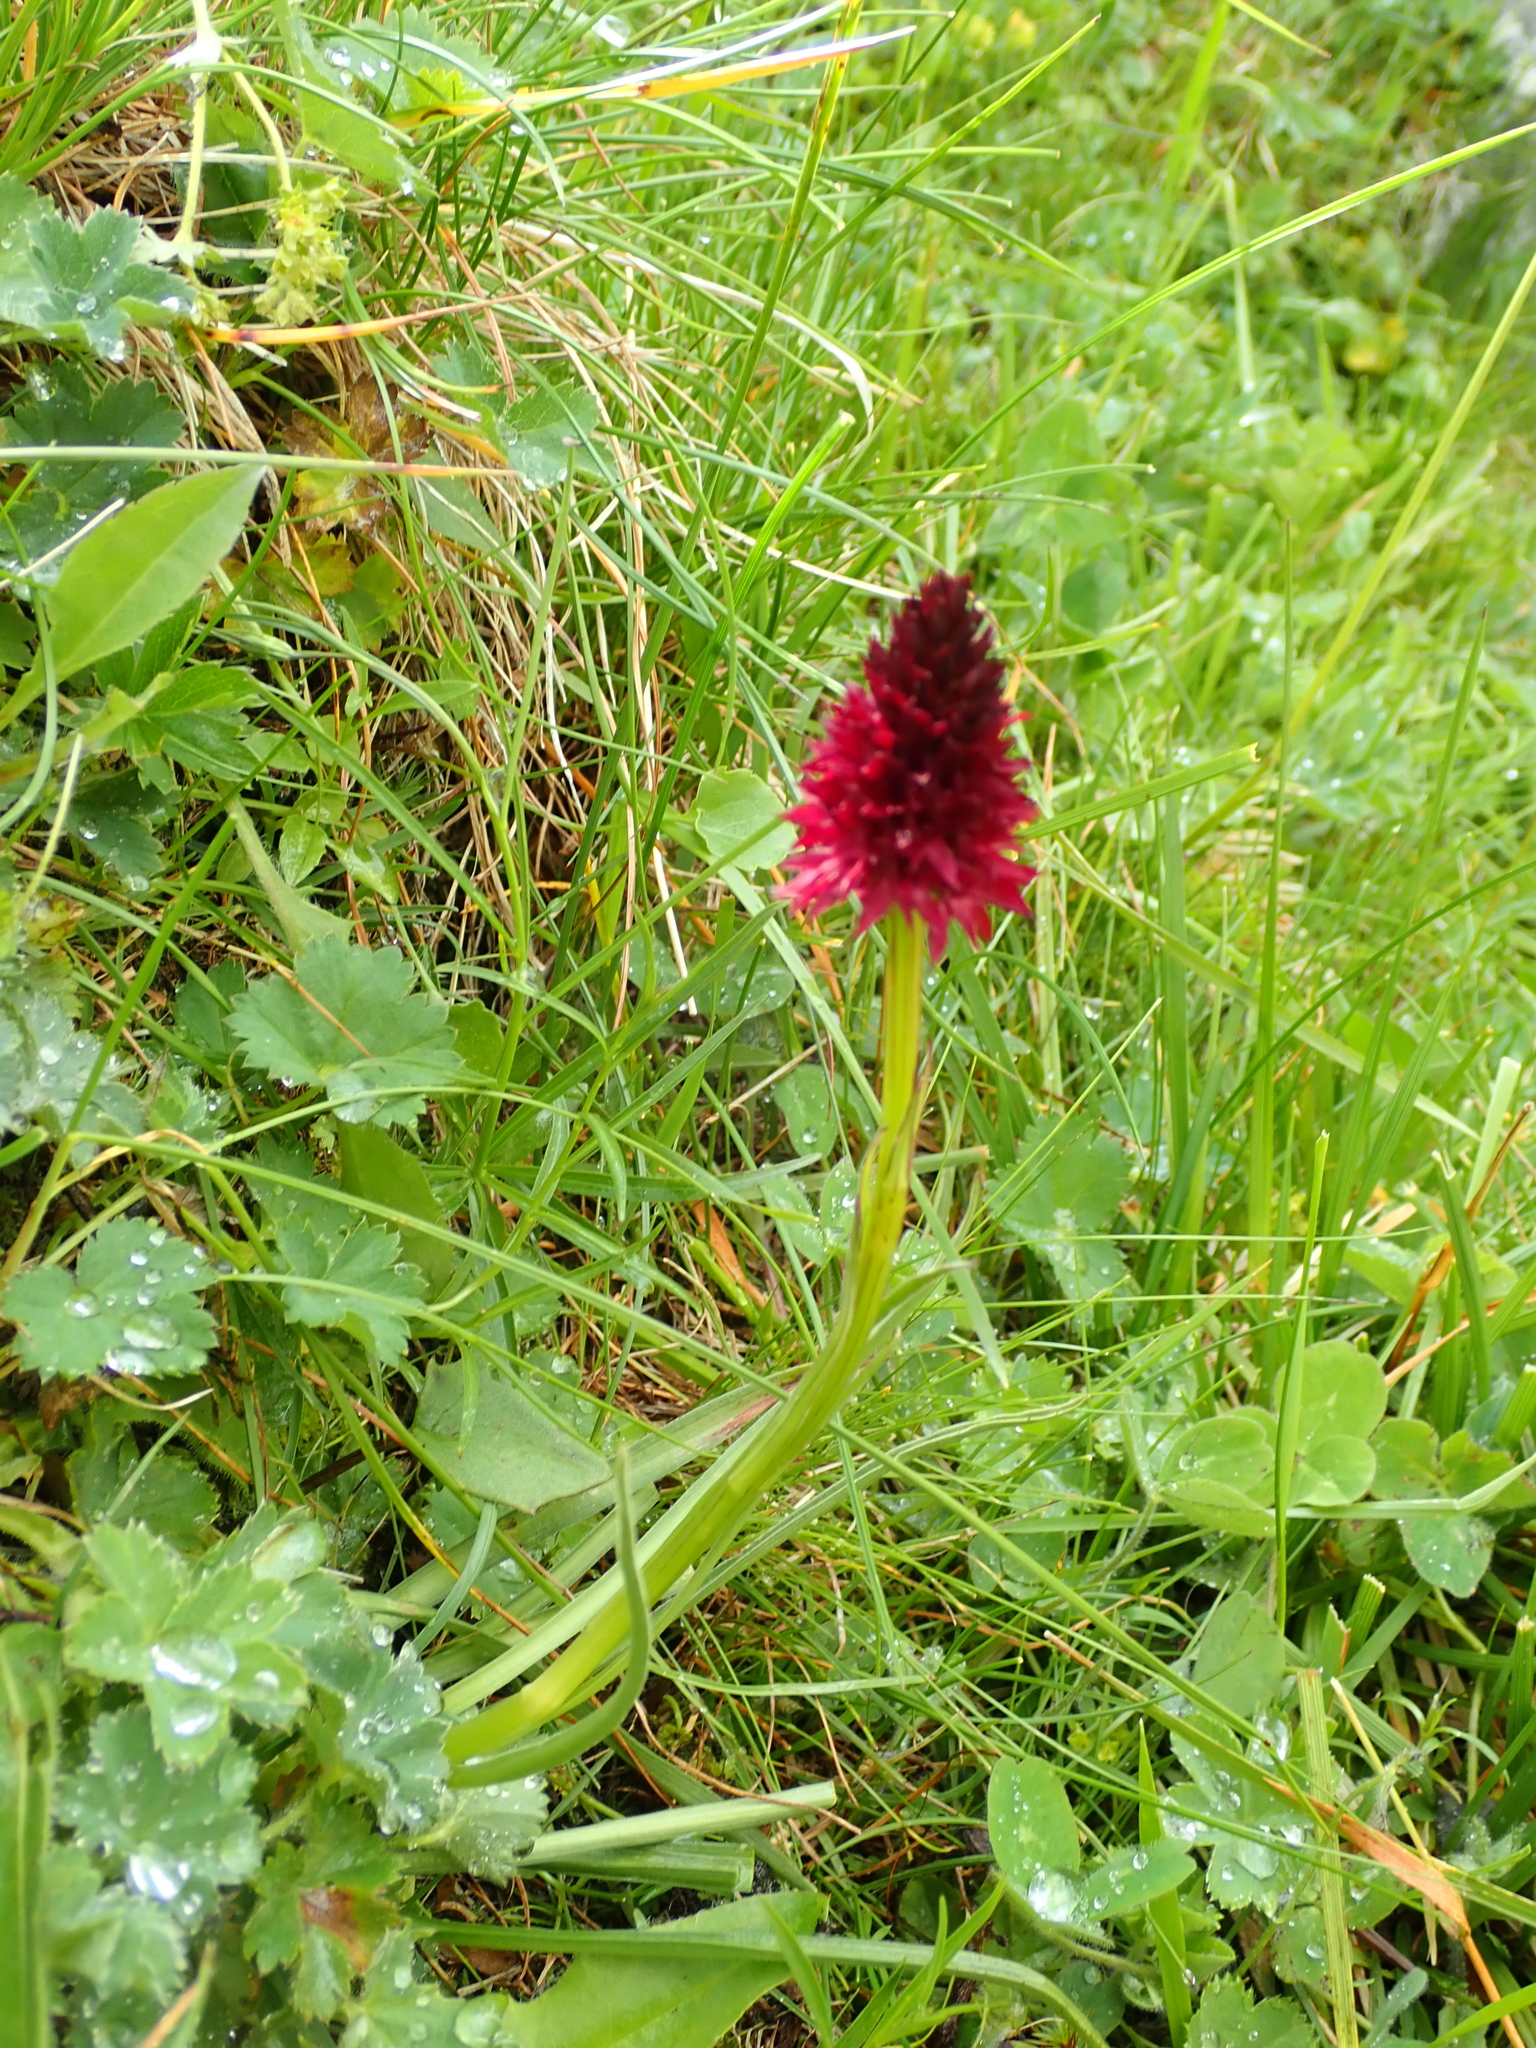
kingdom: Plantae
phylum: Tracheophyta
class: Liliopsida
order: Asparagales
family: Orchidaceae
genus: Gymnadenia
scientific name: Gymnadenia rhellicani
